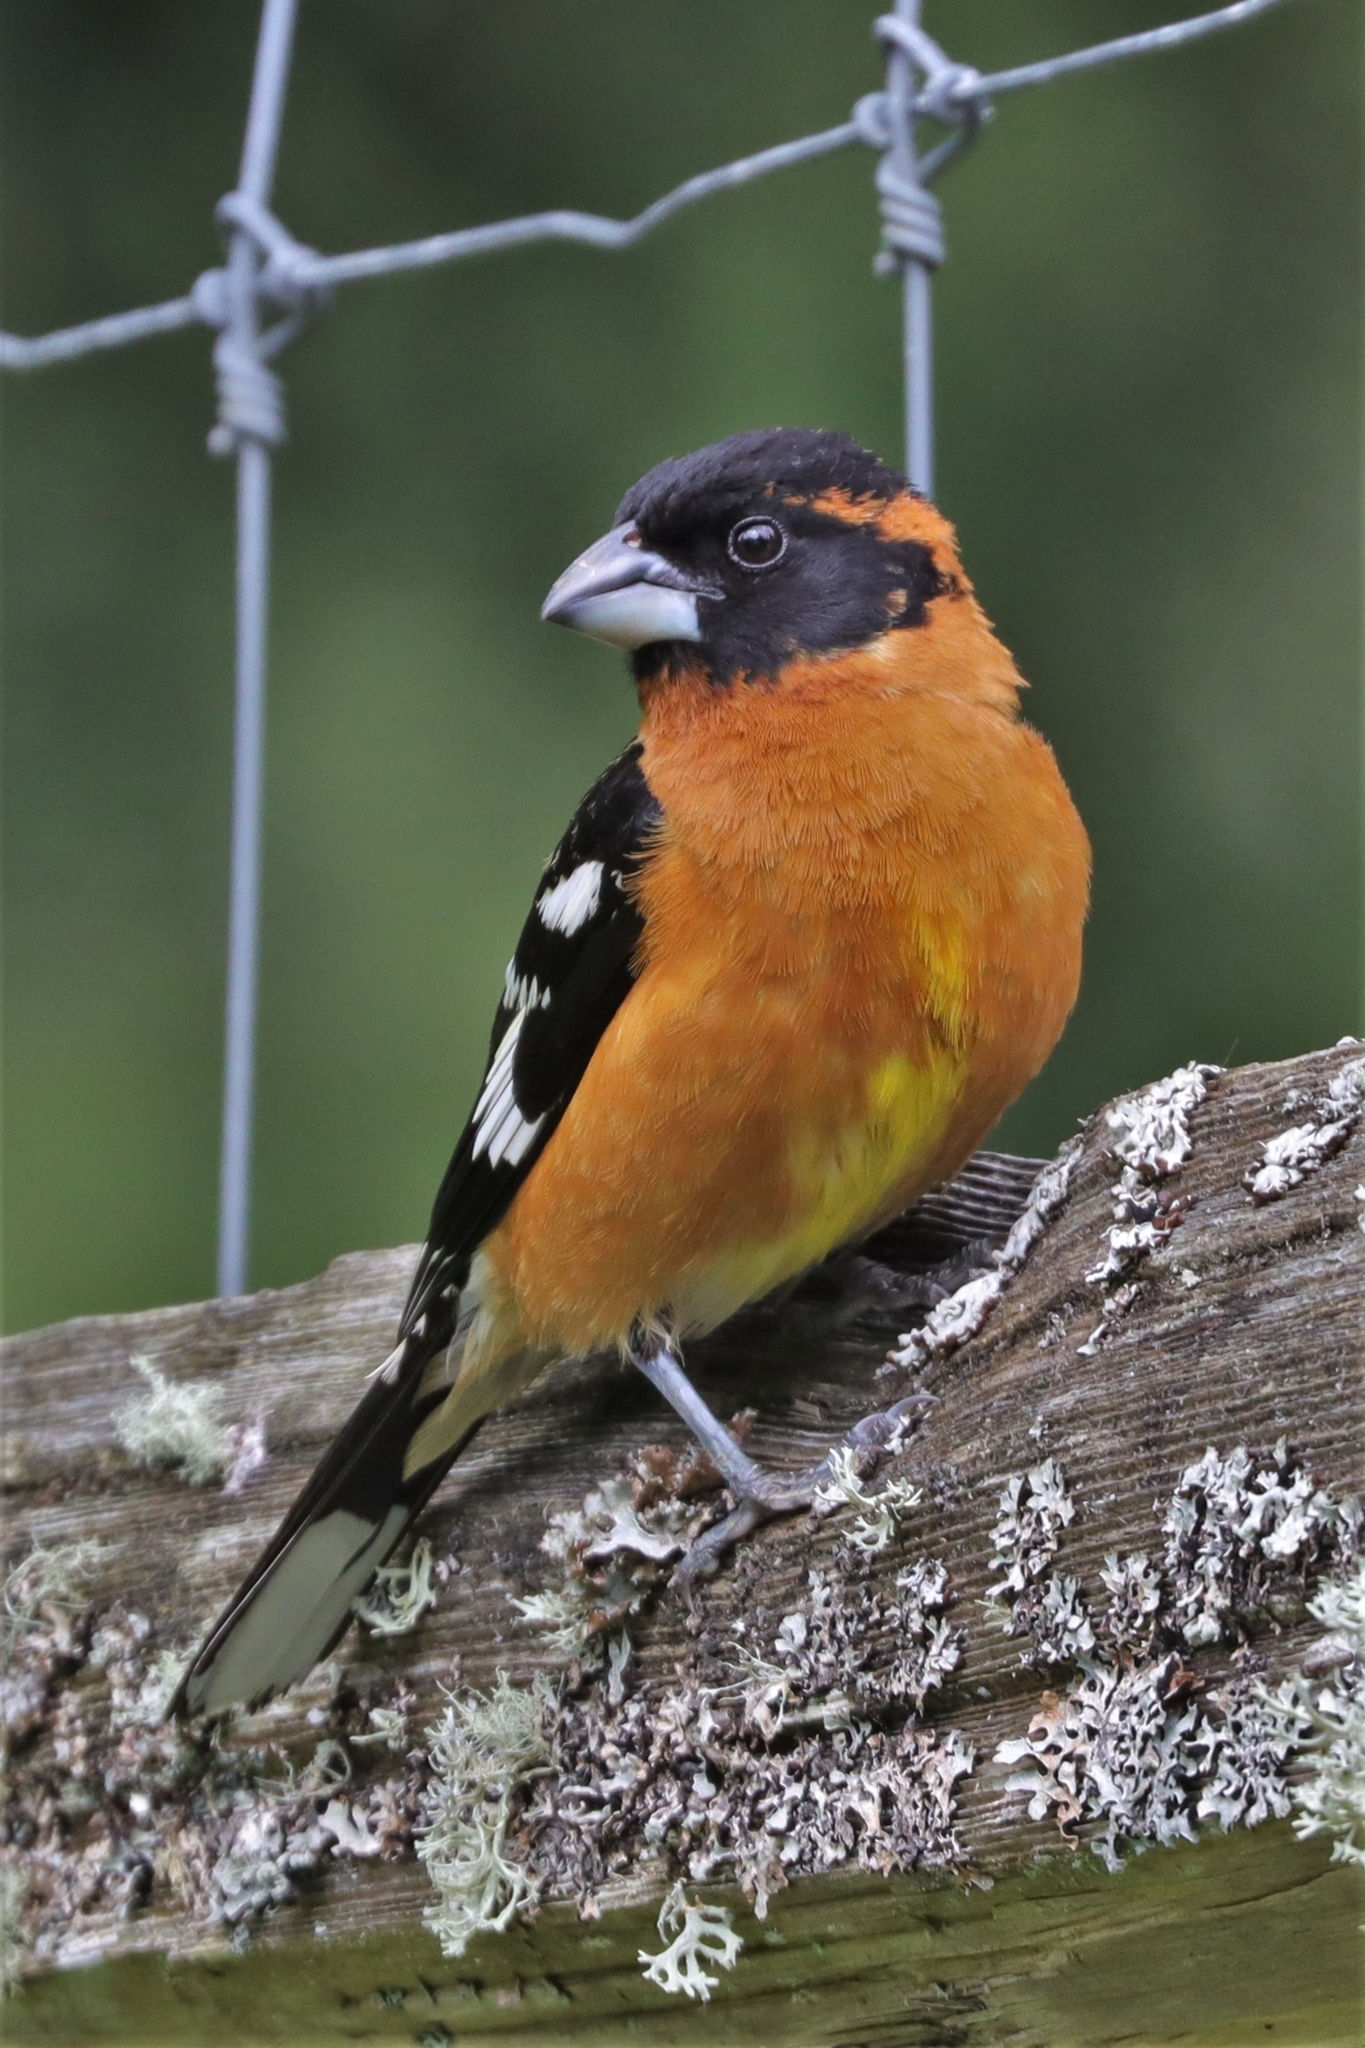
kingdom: Animalia
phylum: Chordata
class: Aves
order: Passeriformes
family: Cardinalidae
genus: Pheucticus
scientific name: Pheucticus melanocephalus
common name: Black-headed grosbeak
